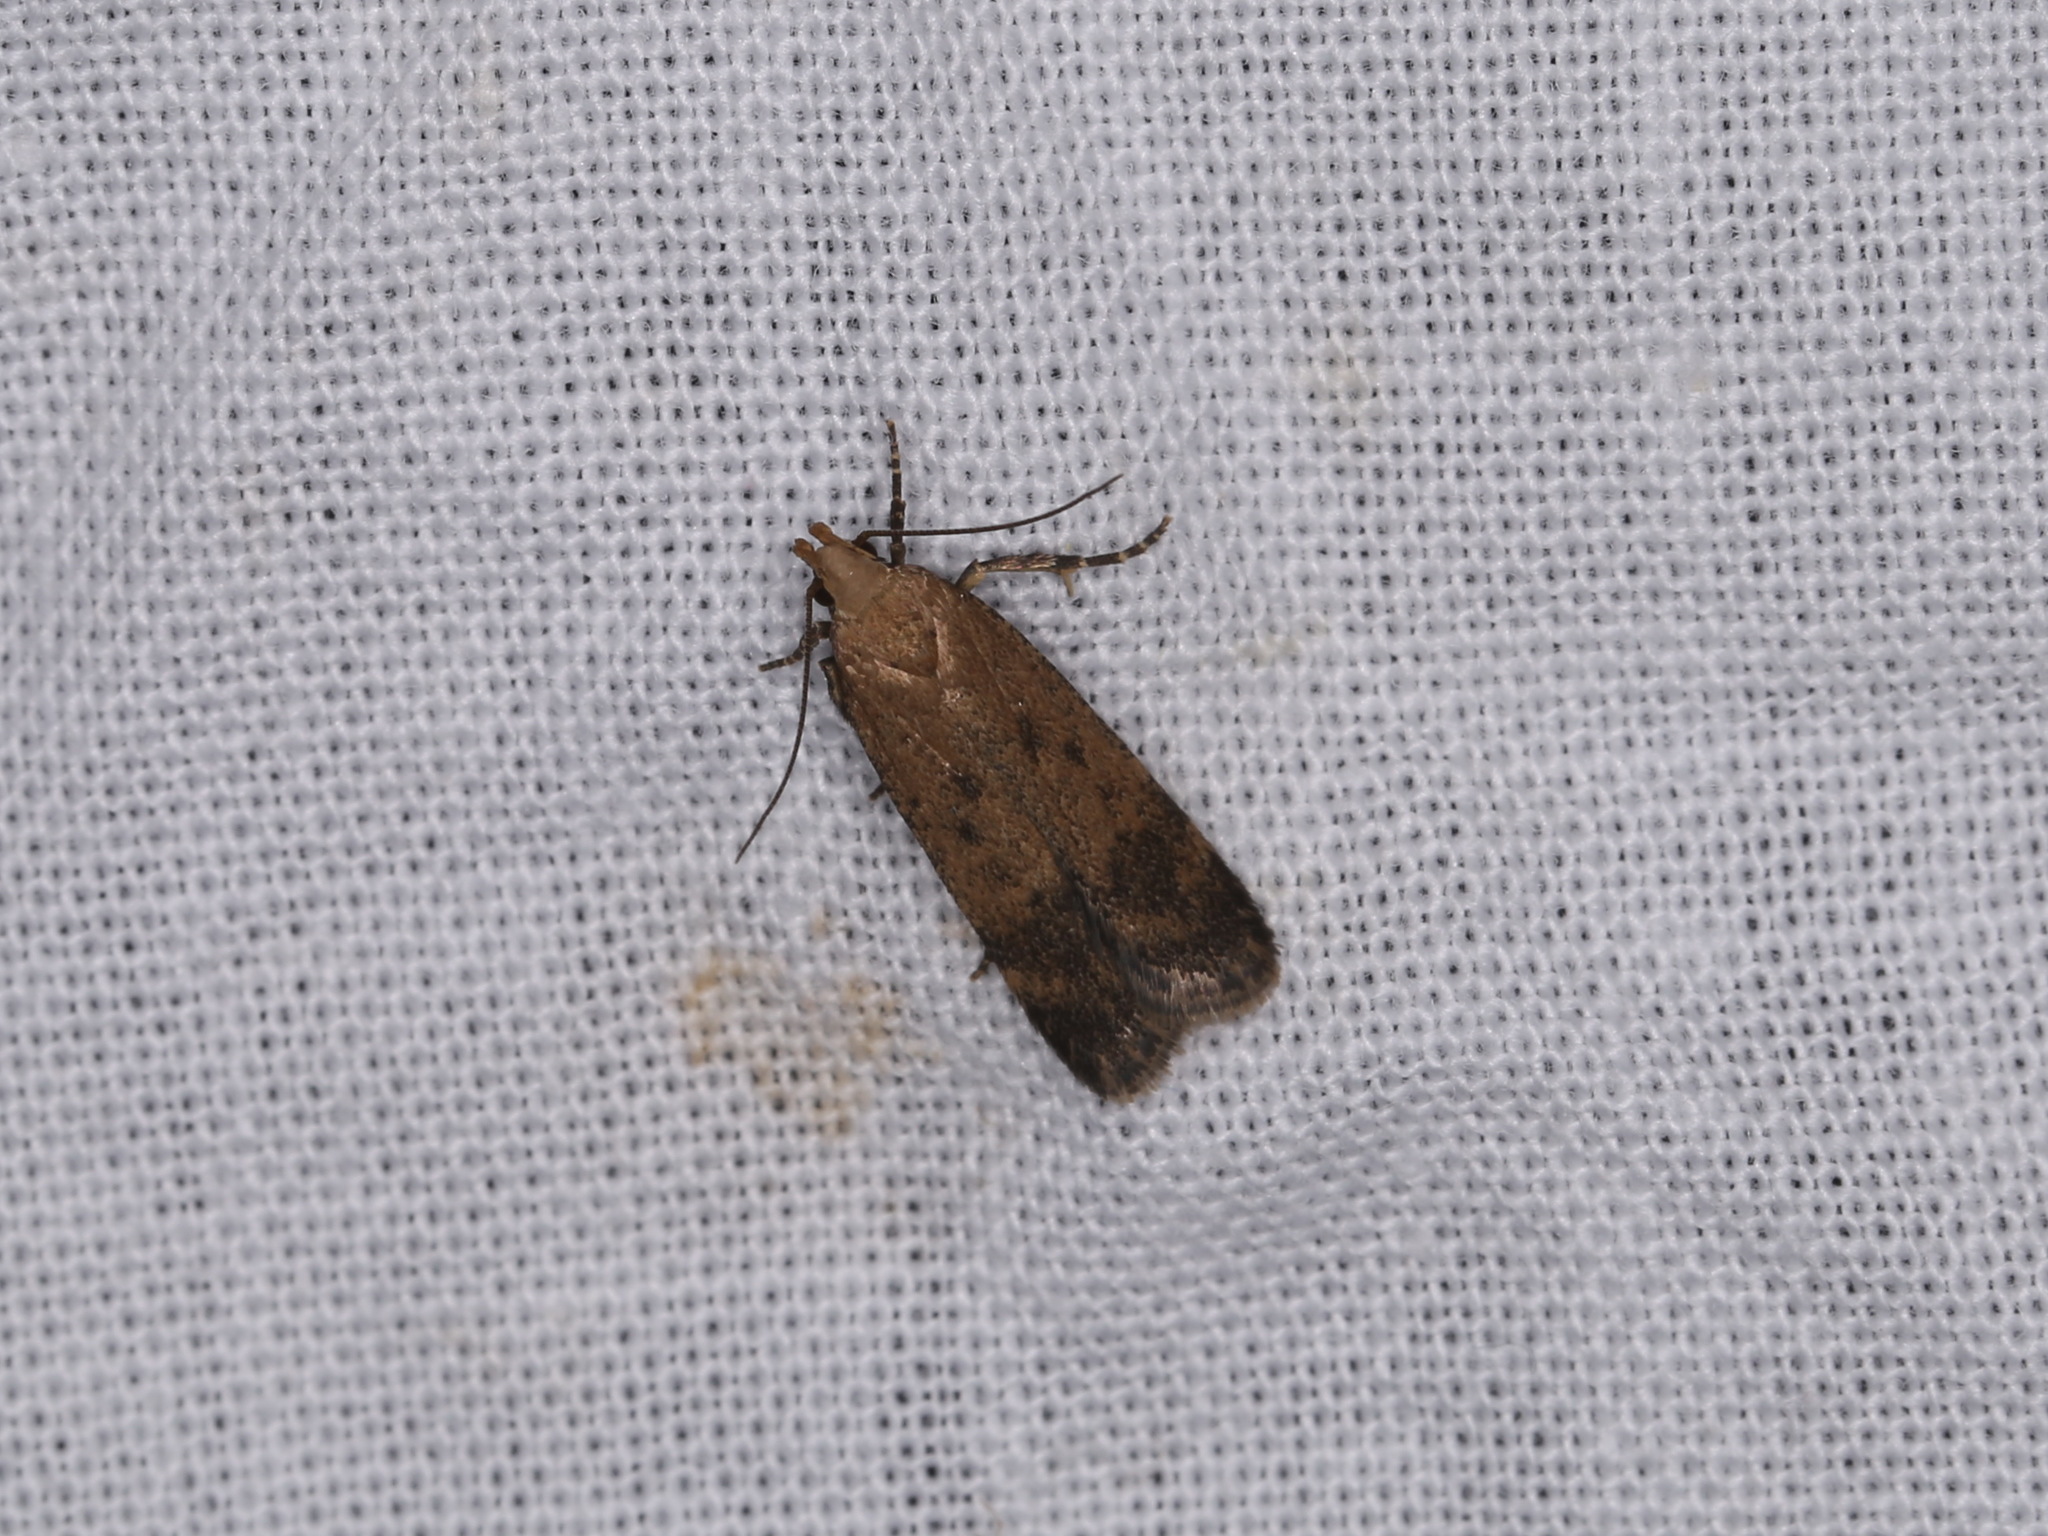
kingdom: Animalia
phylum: Arthropoda
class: Insecta
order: Lepidoptera
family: Gelechiidae
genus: Pexicopia
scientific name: Pexicopia malvella
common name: Hollyhock seed moth
